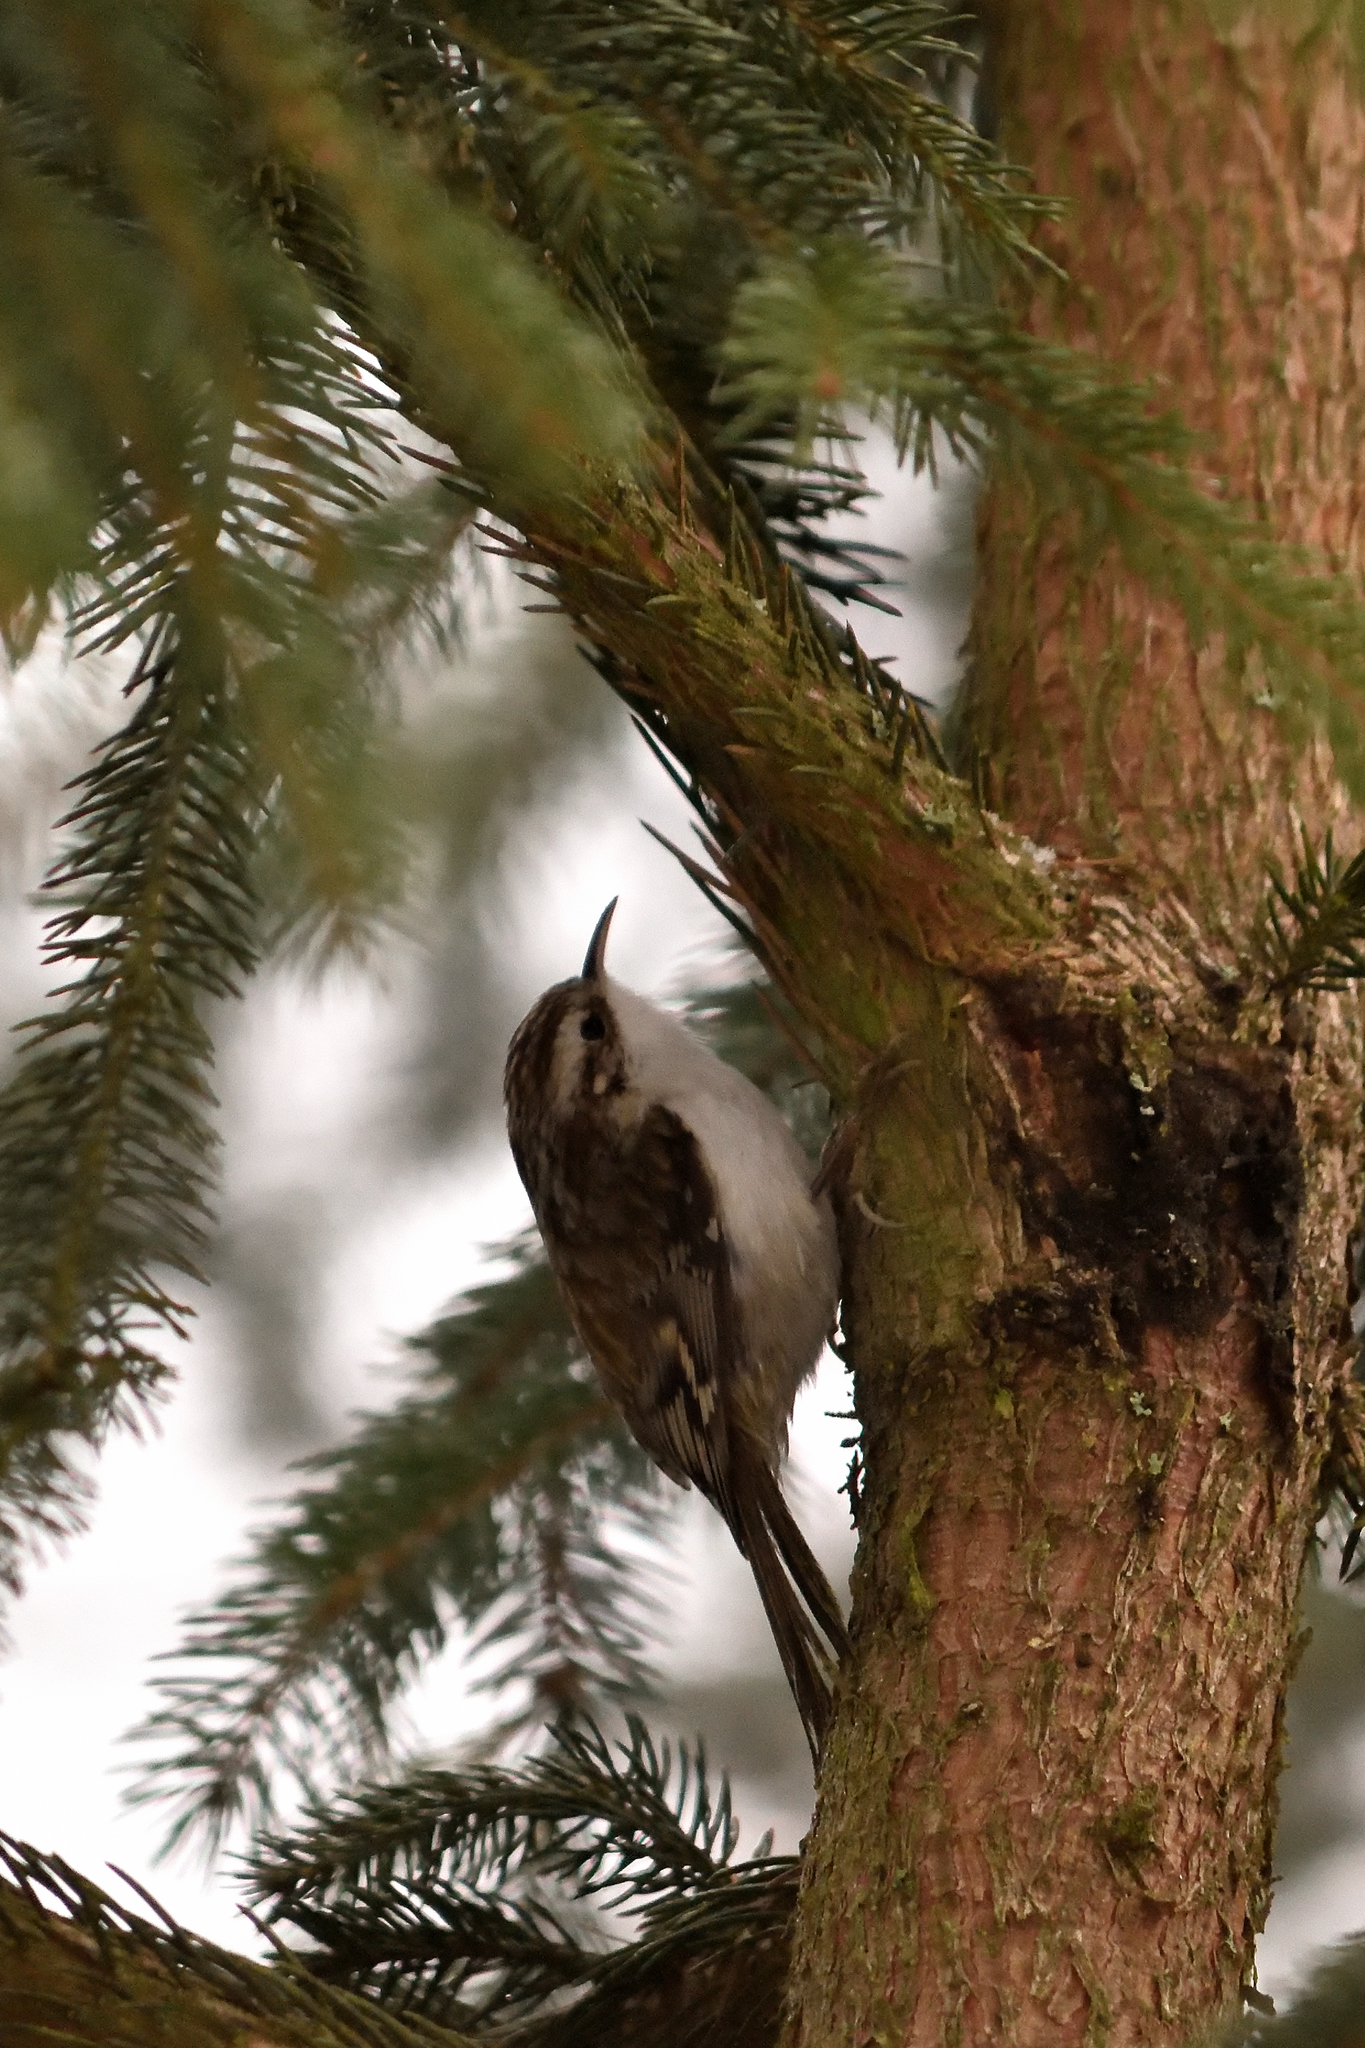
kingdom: Animalia
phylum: Chordata
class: Aves
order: Passeriformes
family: Certhiidae
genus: Certhia
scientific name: Certhia brachydactyla
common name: Short-toed treecreeper
